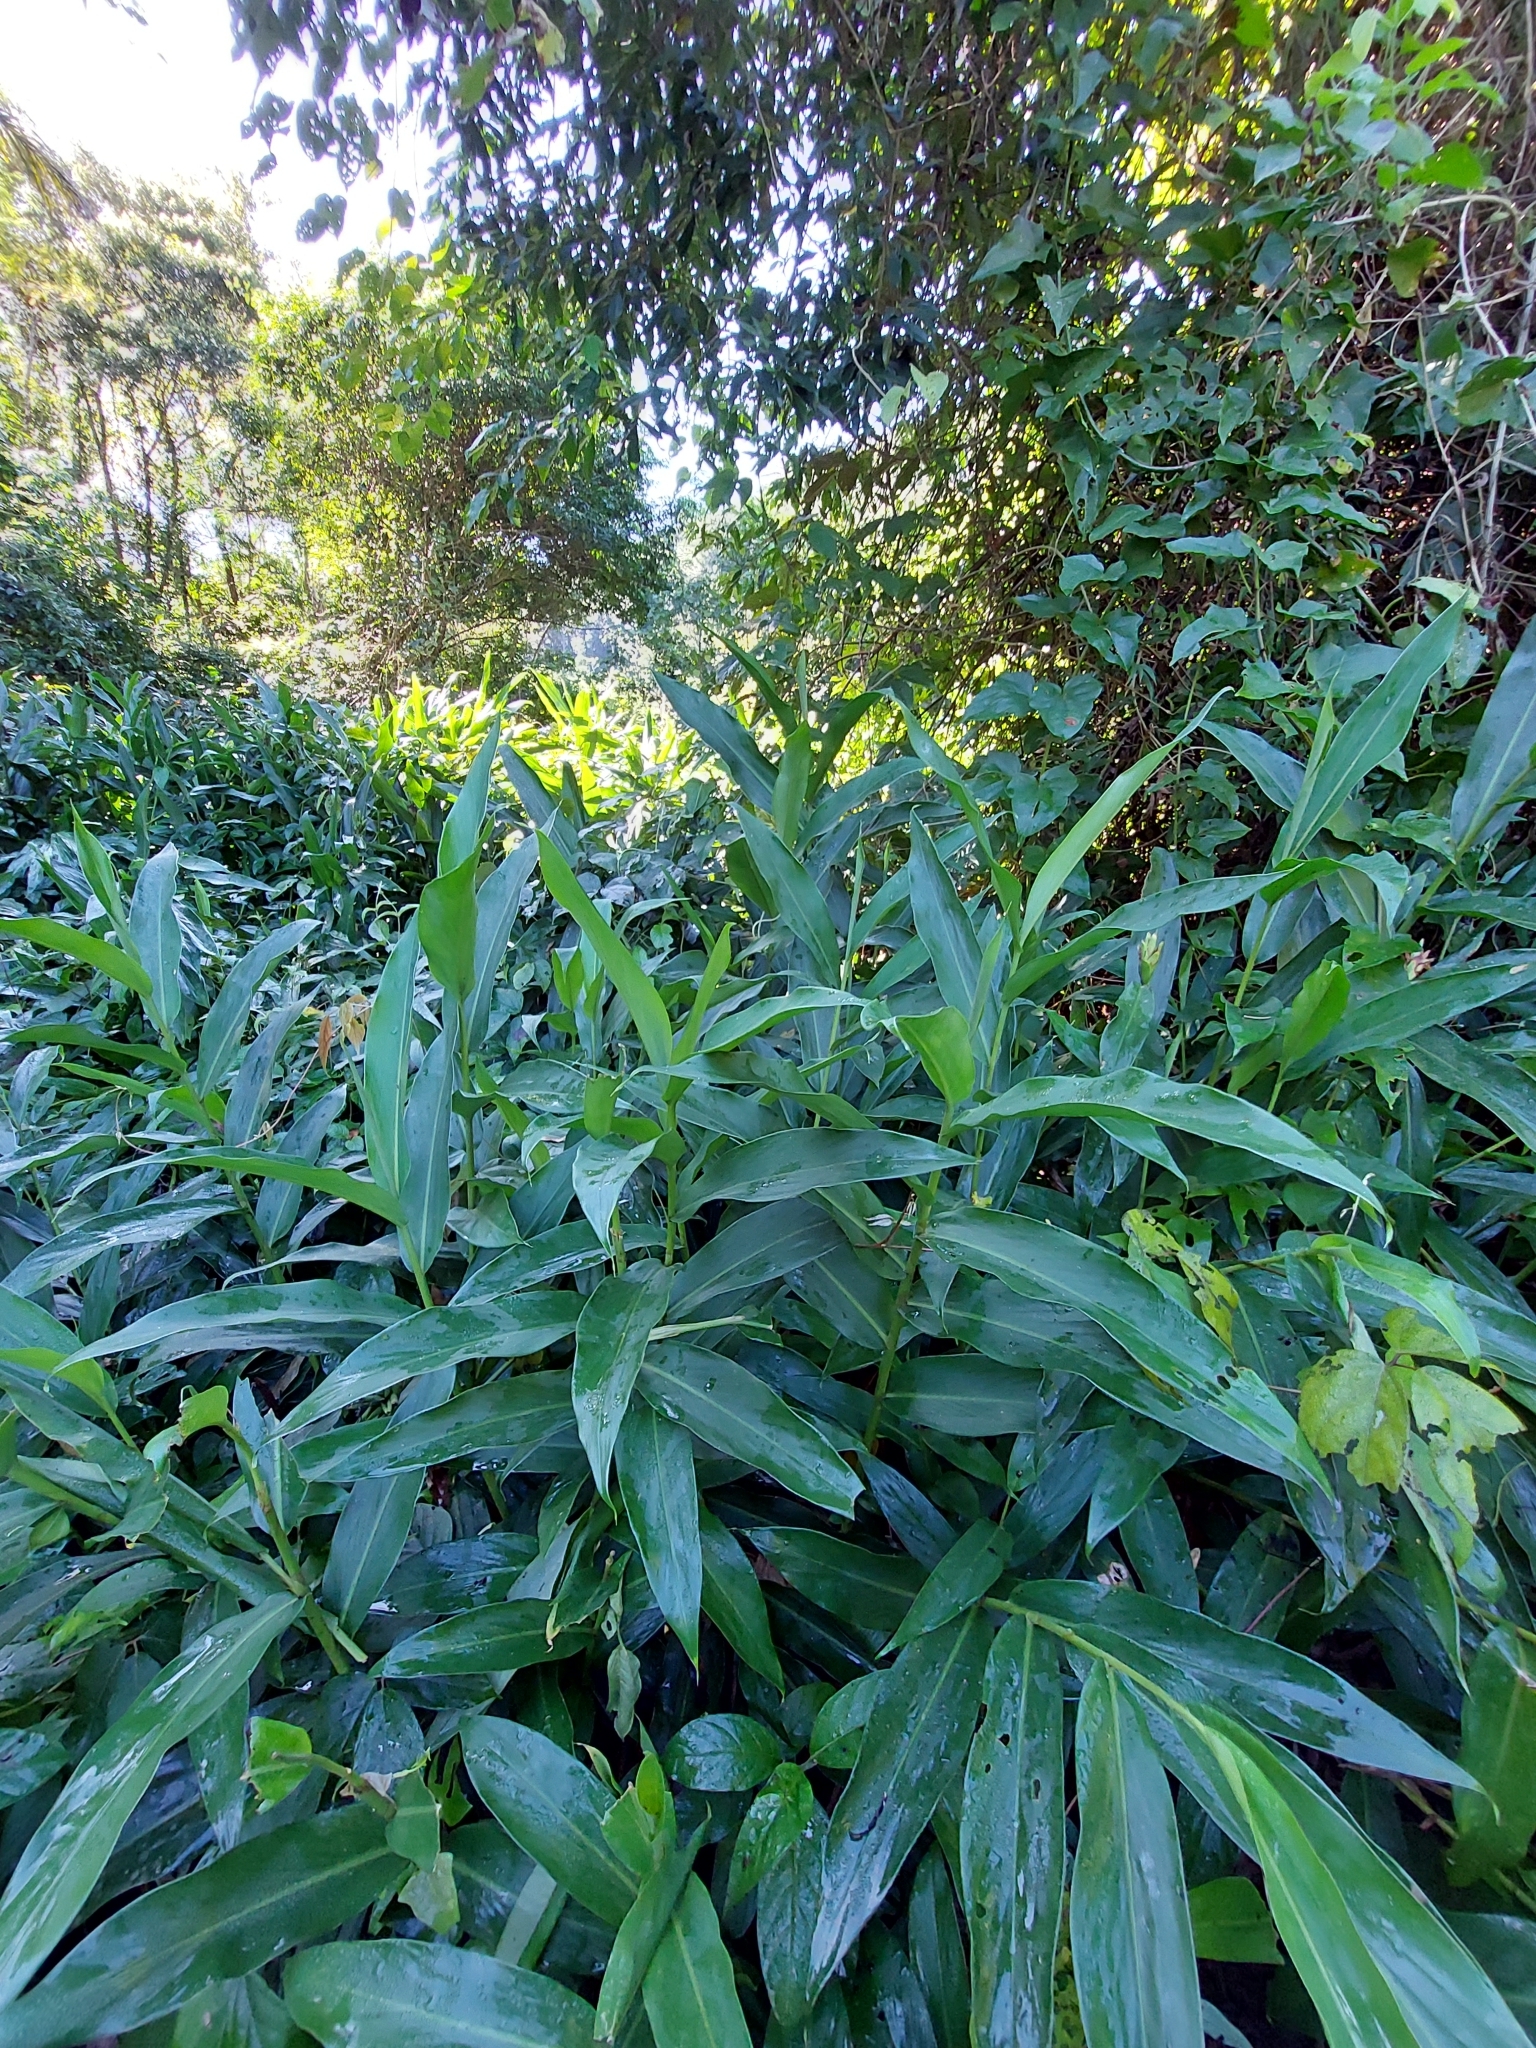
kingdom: Plantae
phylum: Tracheophyta
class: Liliopsida
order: Zingiberales
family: Zingiberaceae
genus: Hedychium
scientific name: Hedychium coronarium
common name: White garland-lily
